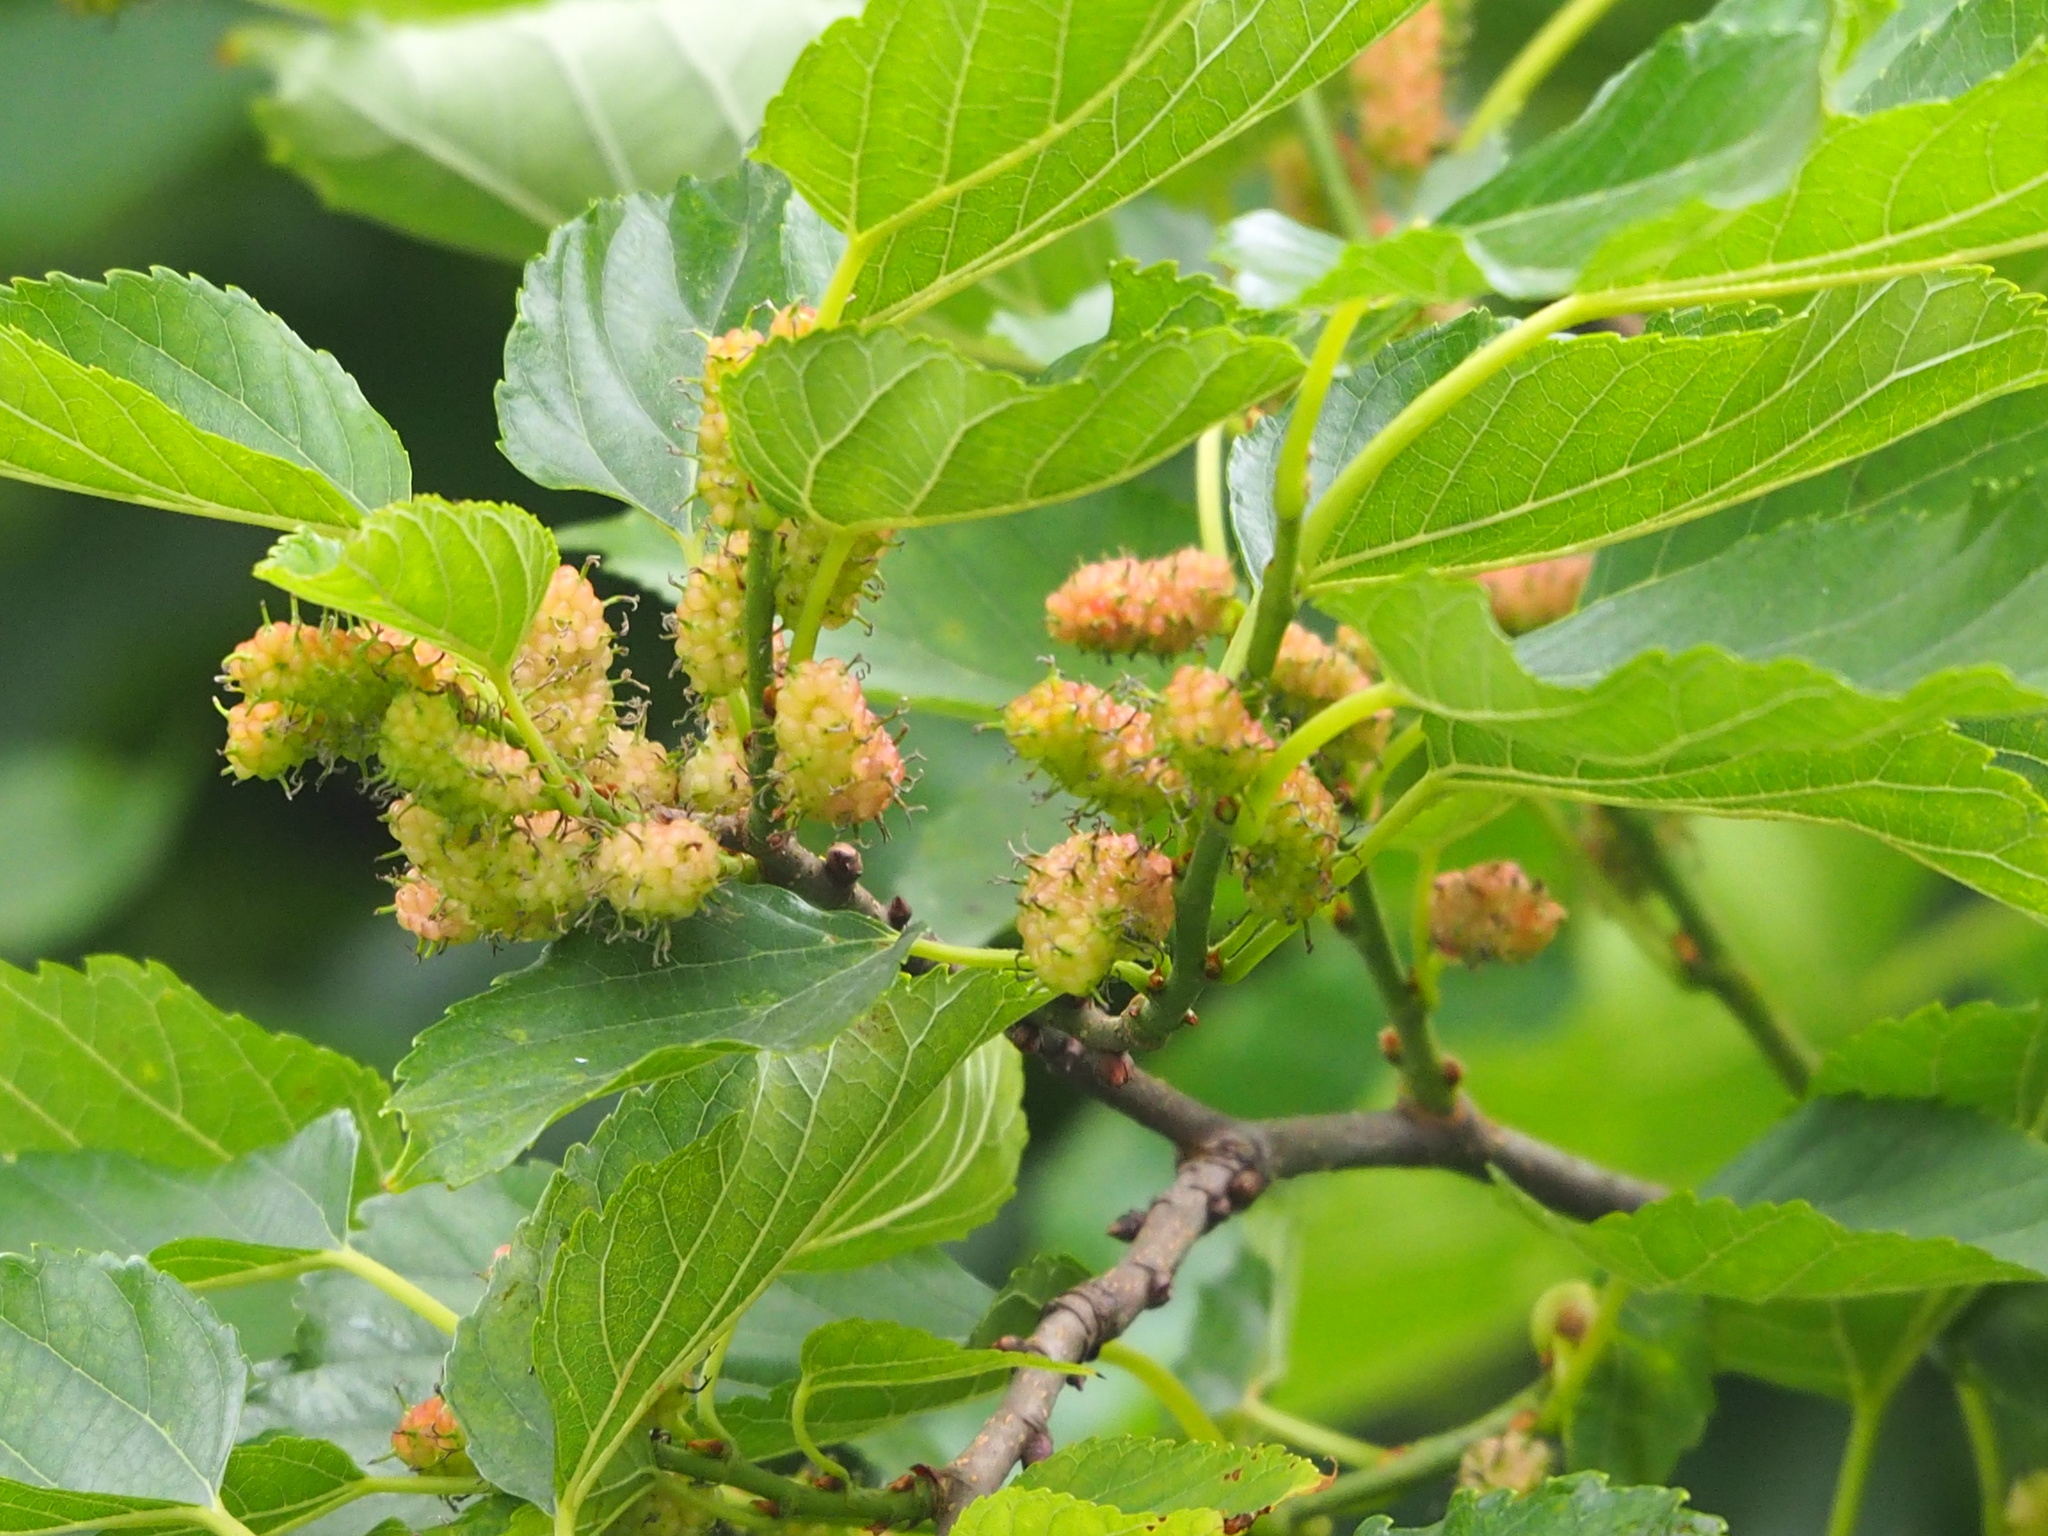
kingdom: Plantae
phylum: Tracheophyta
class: Magnoliopsida
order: Rosales
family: Moraceae
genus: Morus
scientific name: Morus indica
